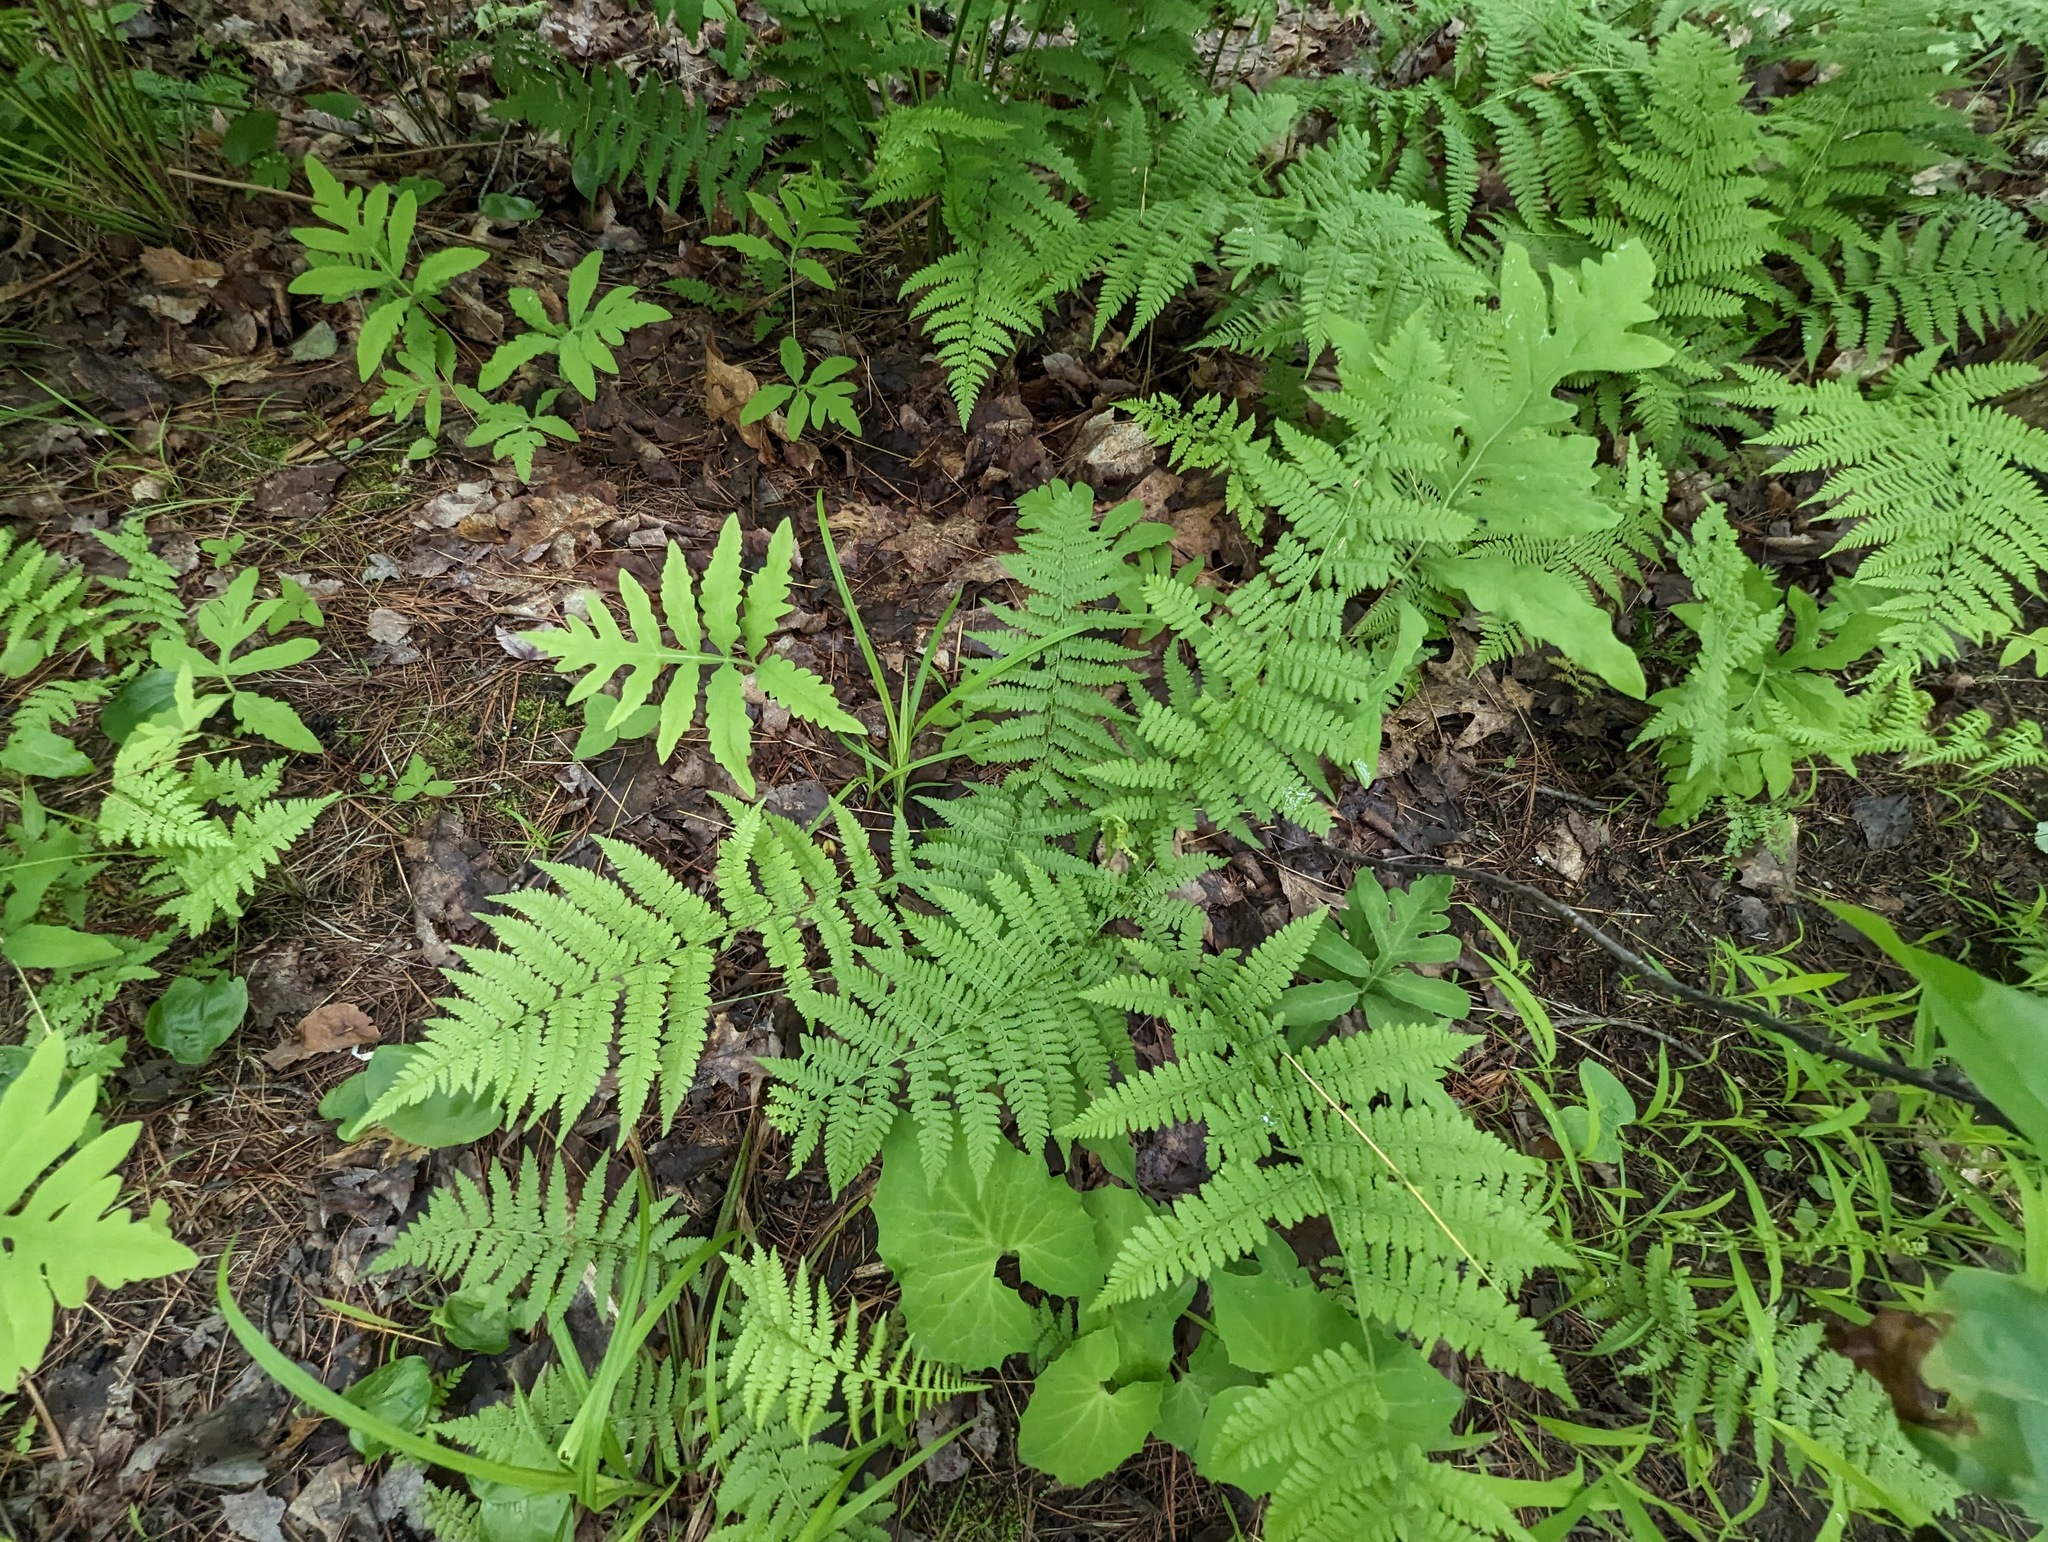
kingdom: Plantae
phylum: Tracheophyta
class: Polypodiopsida
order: Polypodiales
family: Athyriaceae
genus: Athyrium
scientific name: Athyrium angustum
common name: Northern lady fern
